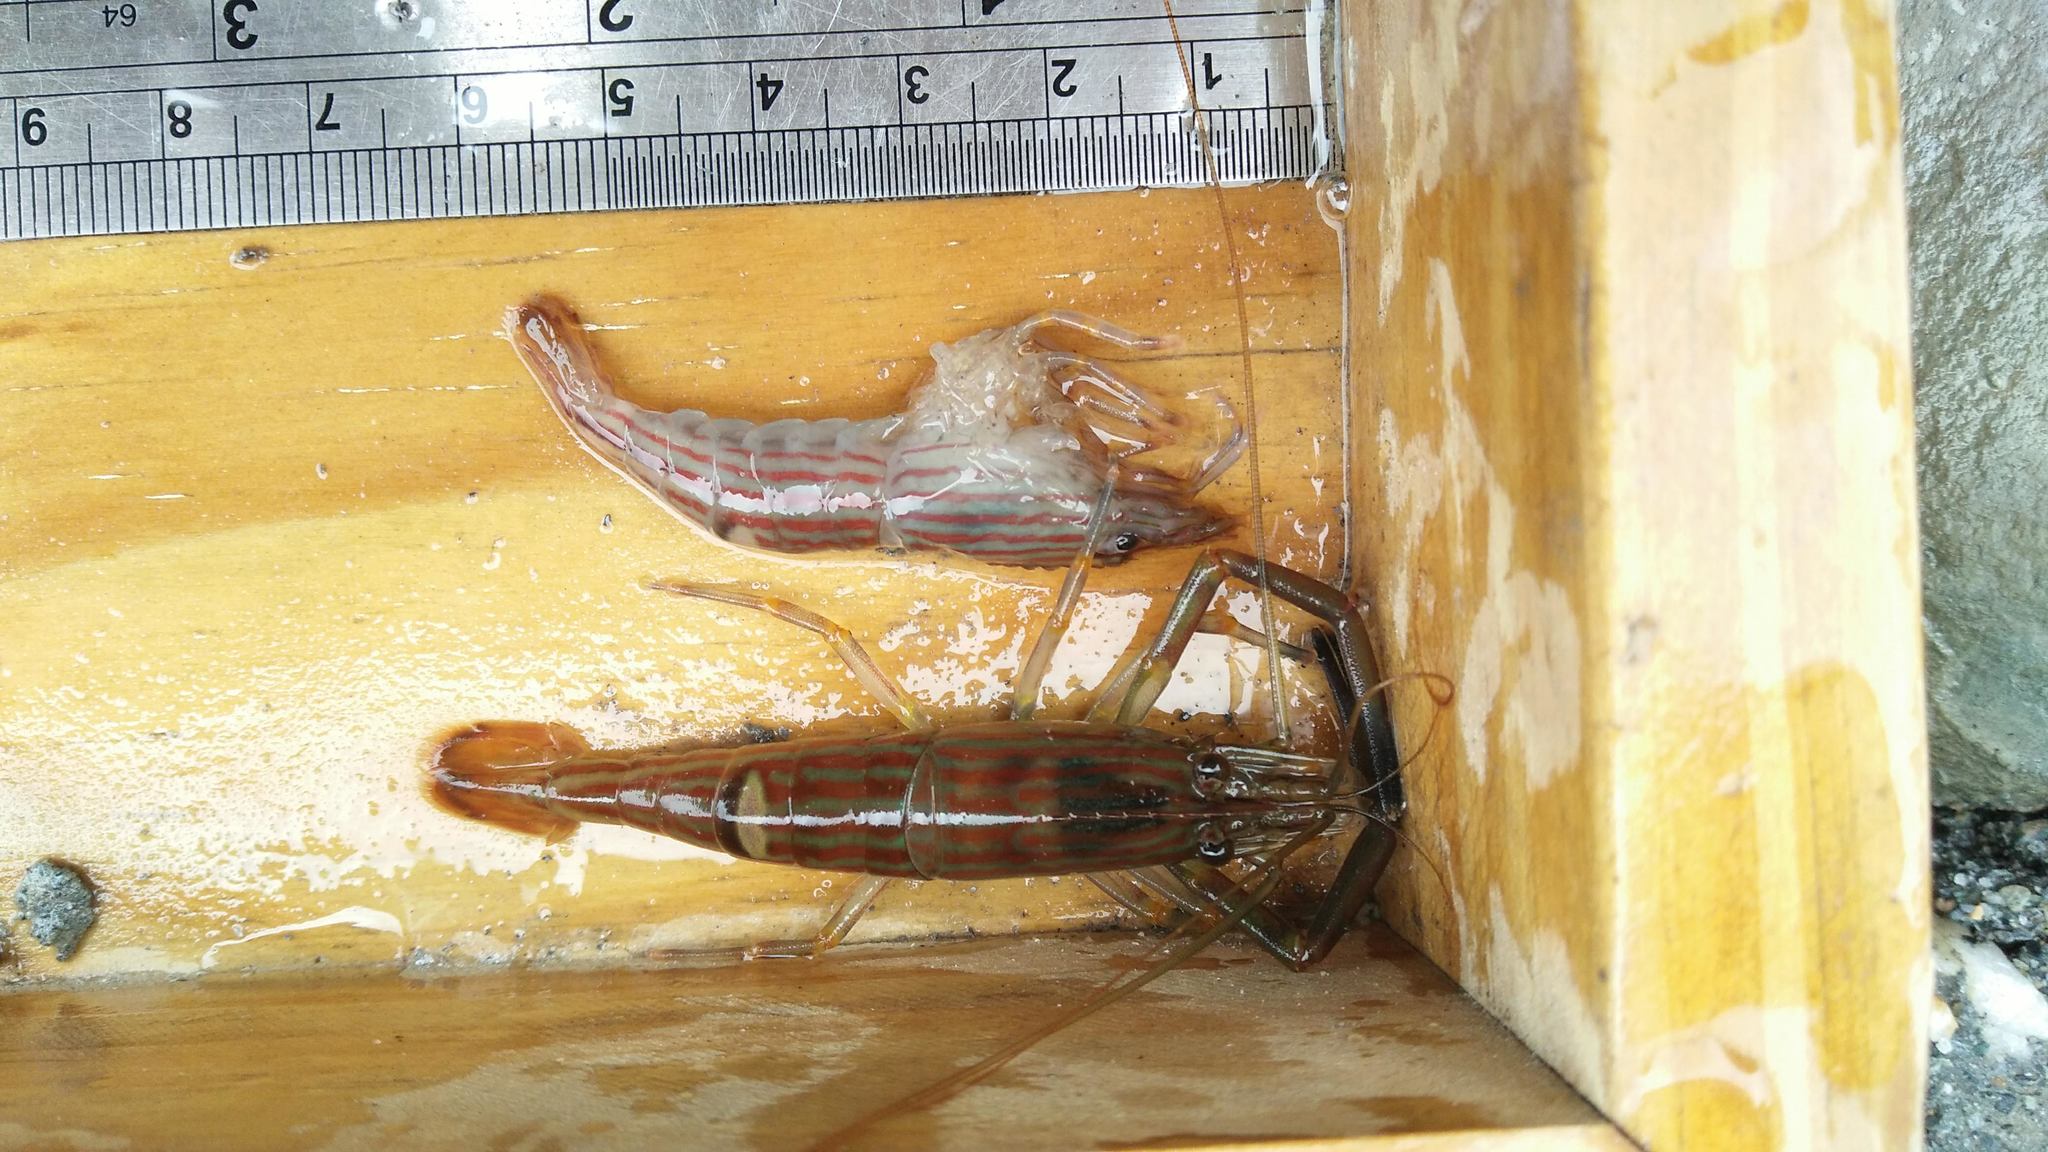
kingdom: Animalia
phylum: Arthropoda
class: Malacostraca
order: Decapoda
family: Palaemonidae
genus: Macrobrachium
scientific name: Macrobrachium gracilirostre
